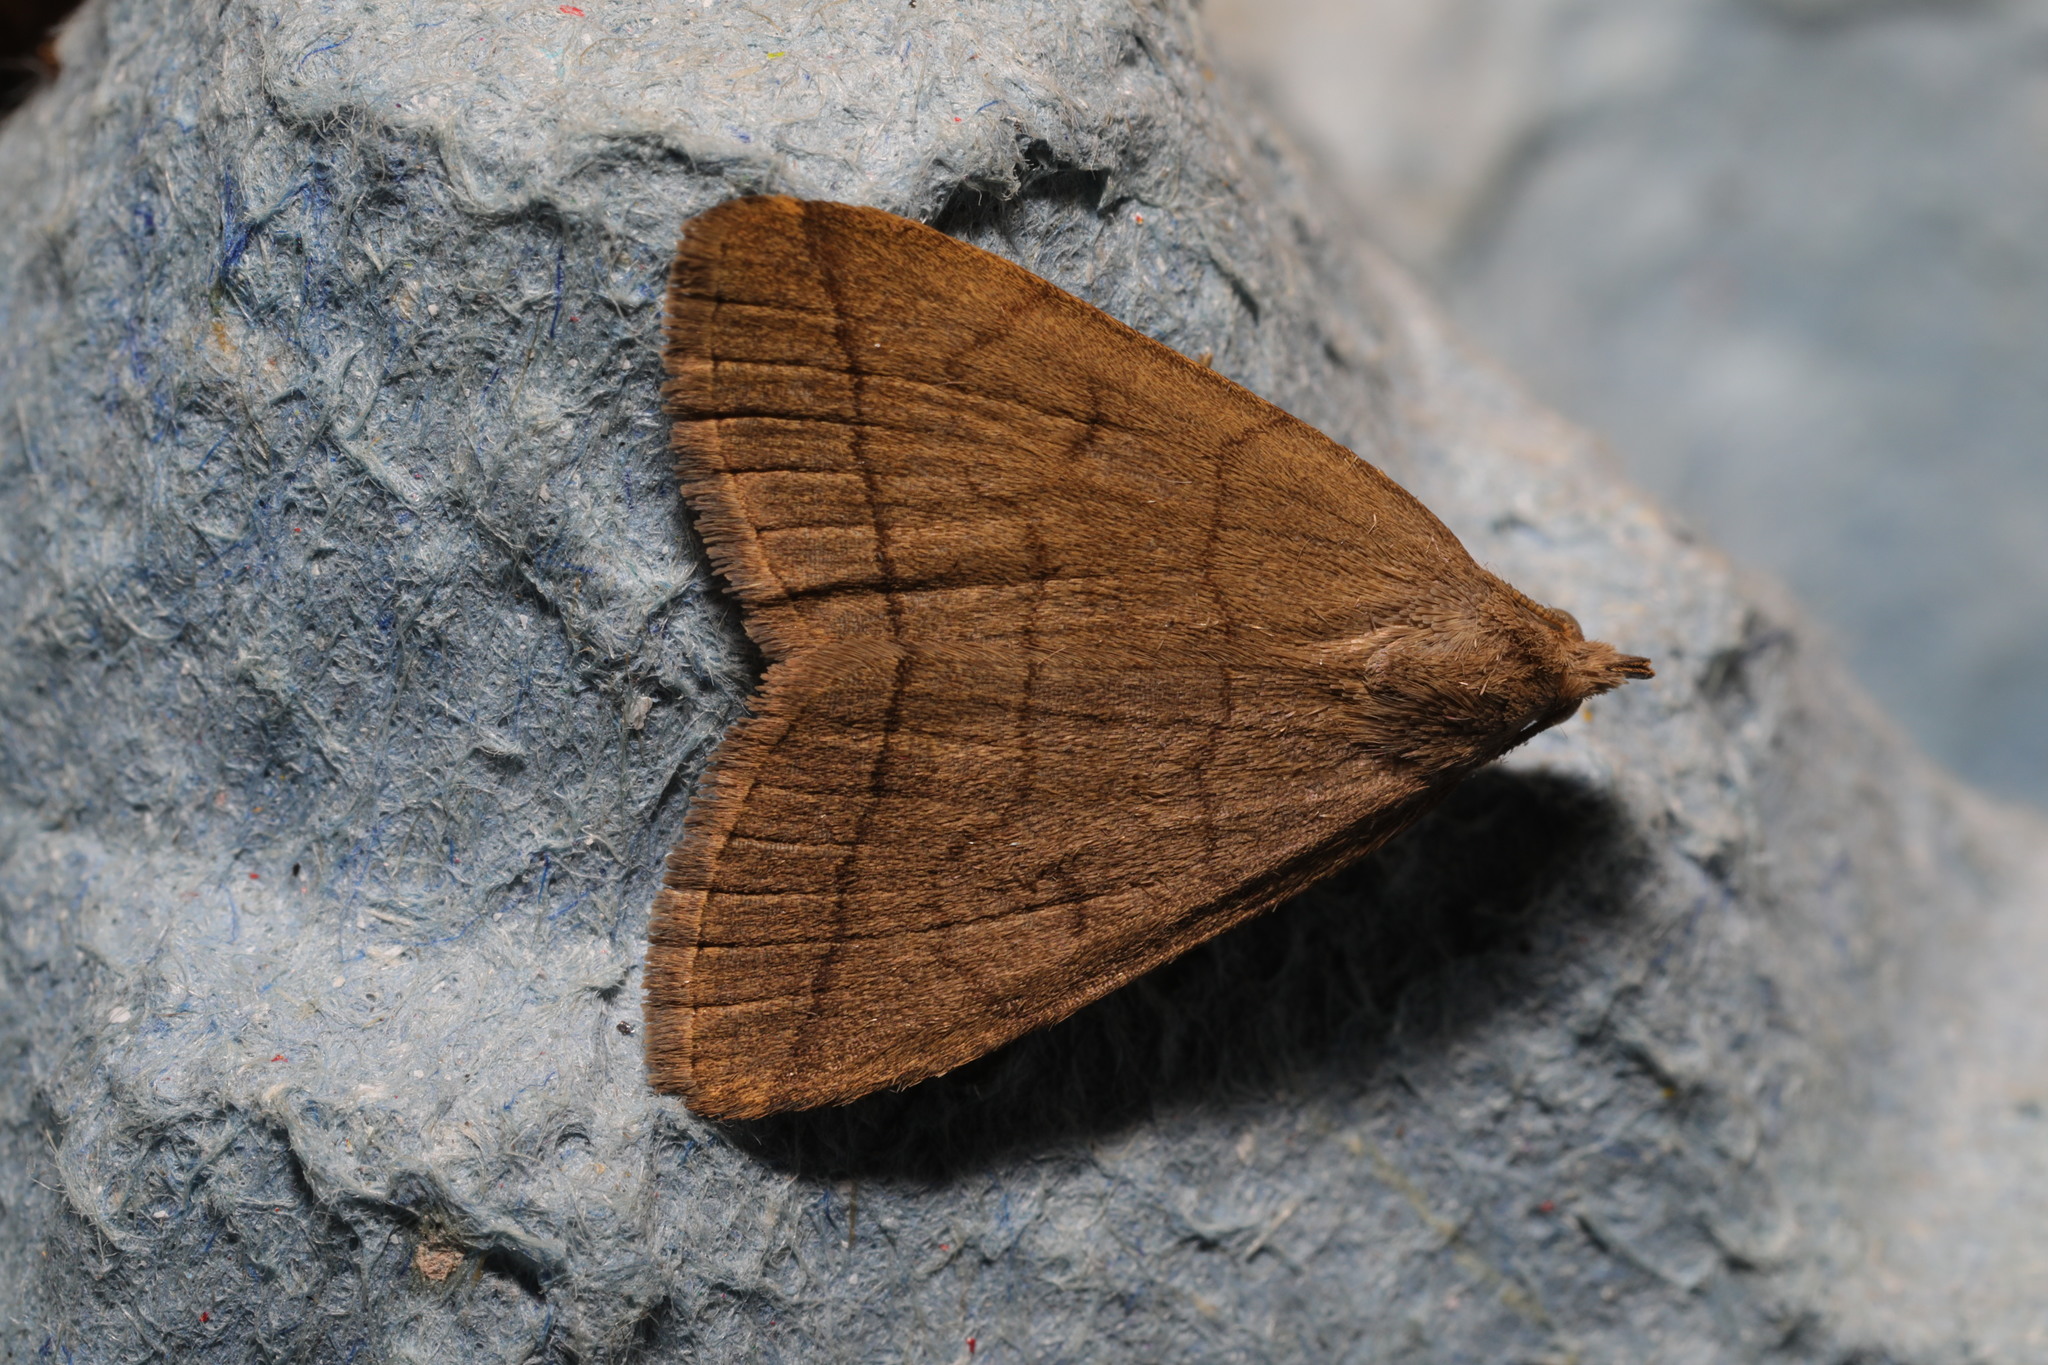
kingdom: Animalia
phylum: Arthropoda
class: Insecta
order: Lepidoptera
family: Erebidae
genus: Herminia
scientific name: Herminia tarsipennalis
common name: Fan-foot
